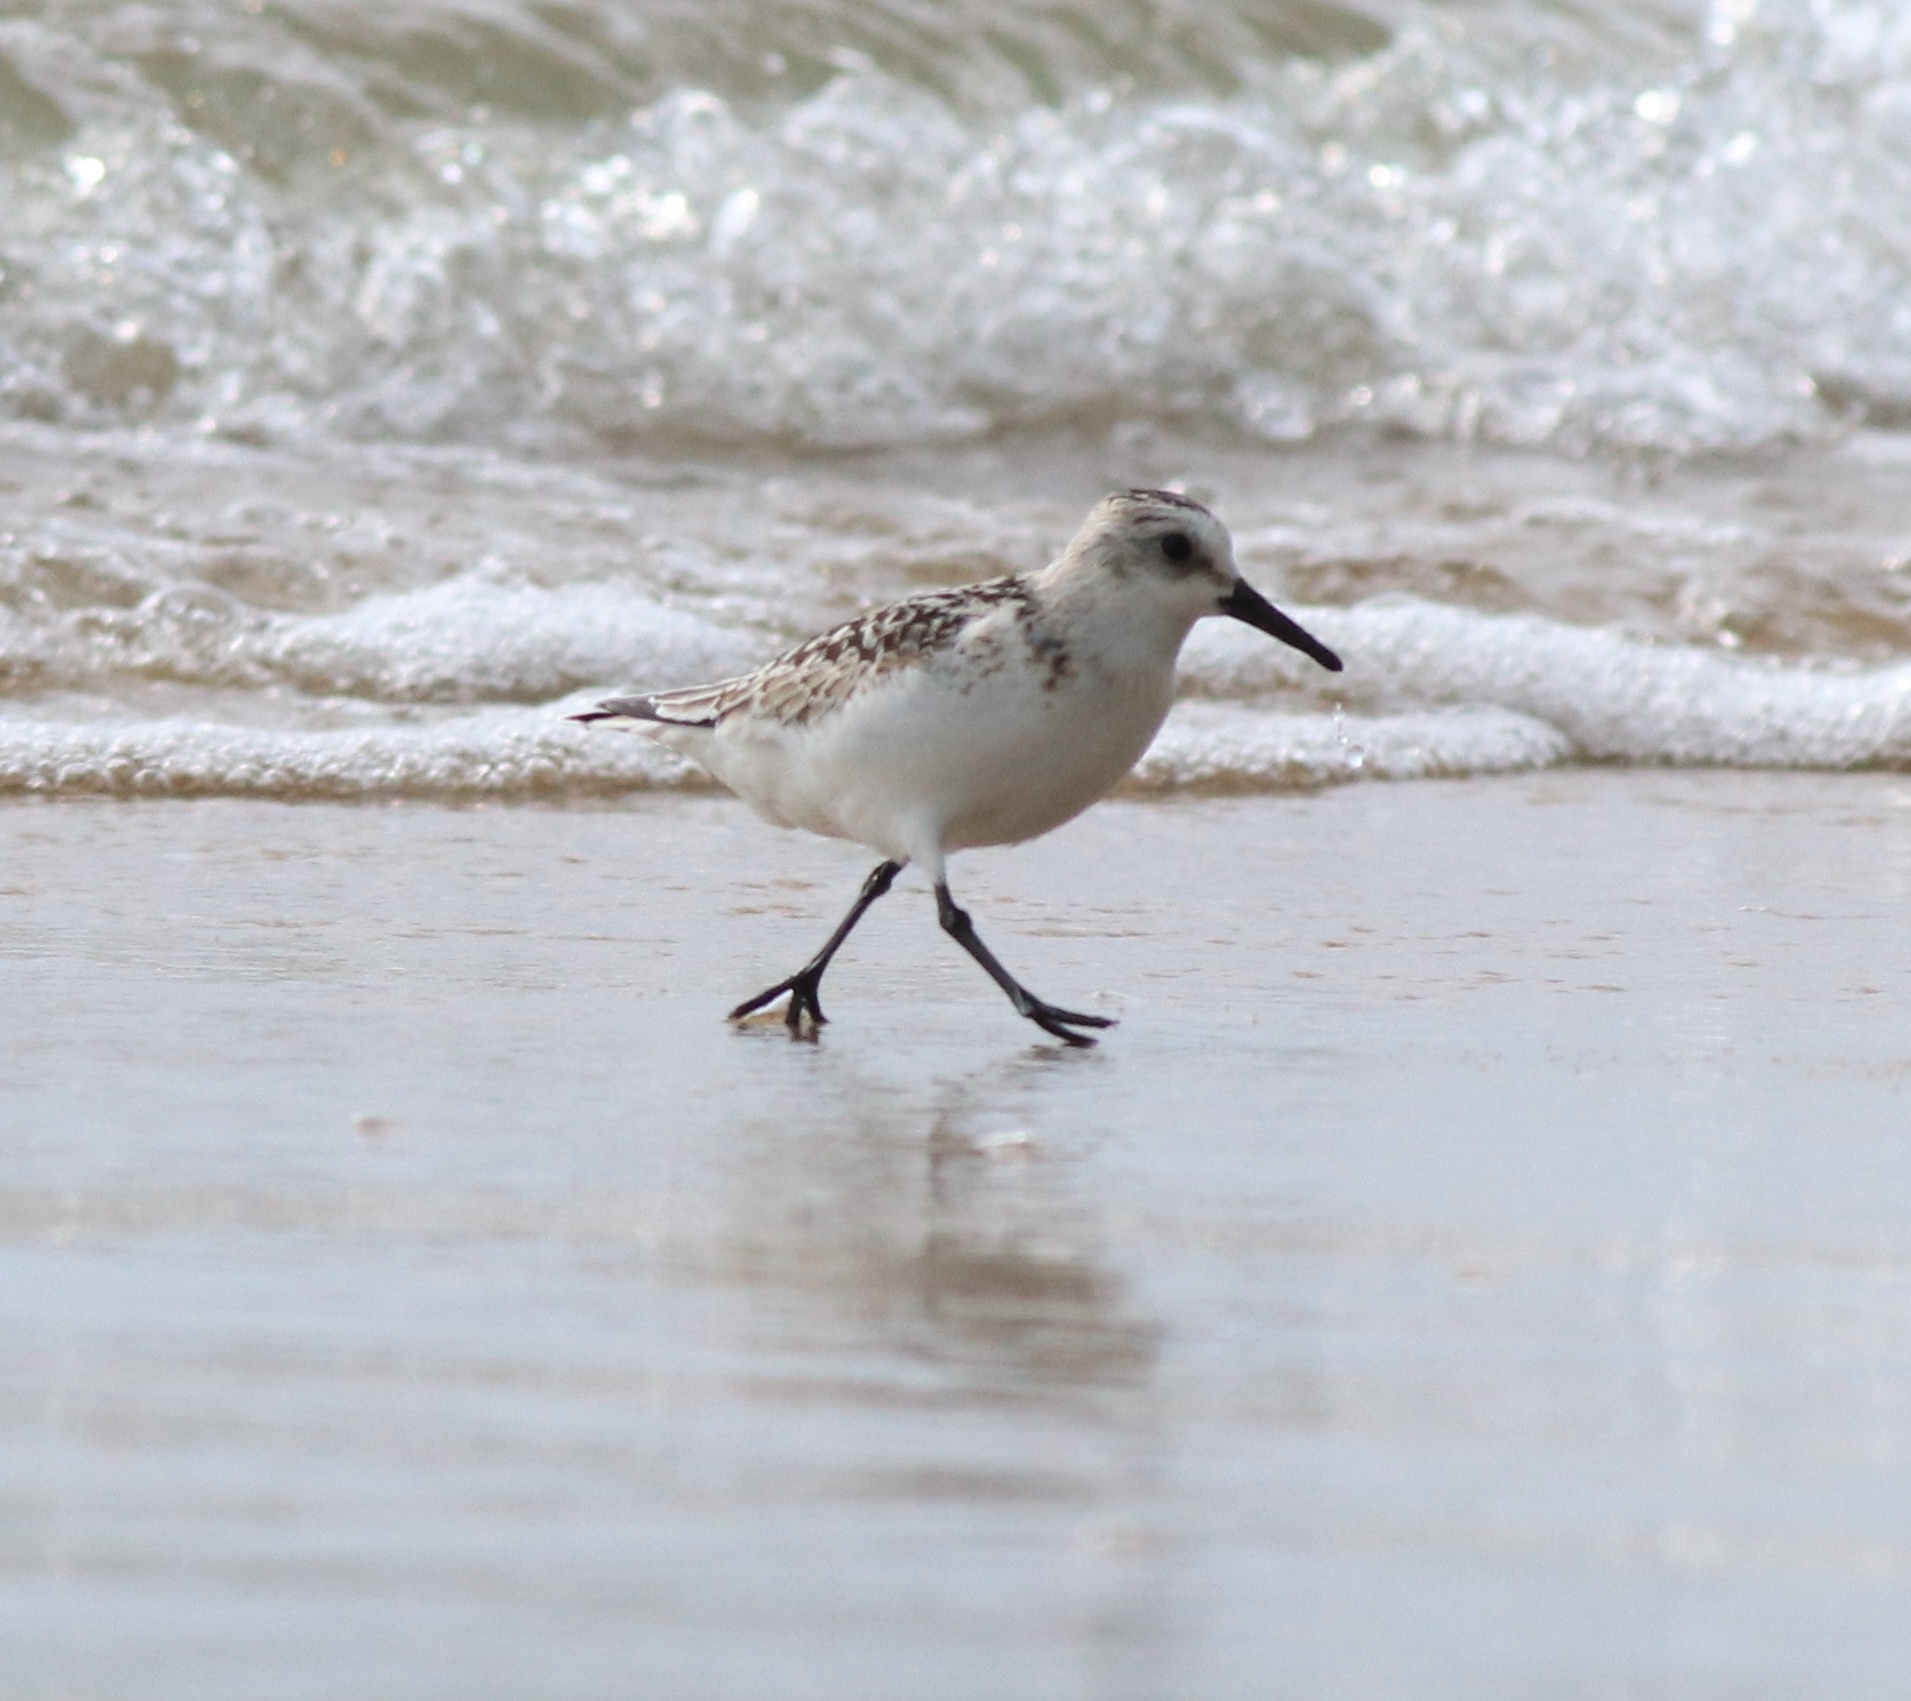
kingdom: Animalia
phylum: Chordata
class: Aves
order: Charadriiformes
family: Scolopacidae
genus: Calidris
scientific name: Calidris alba
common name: Sanderling
